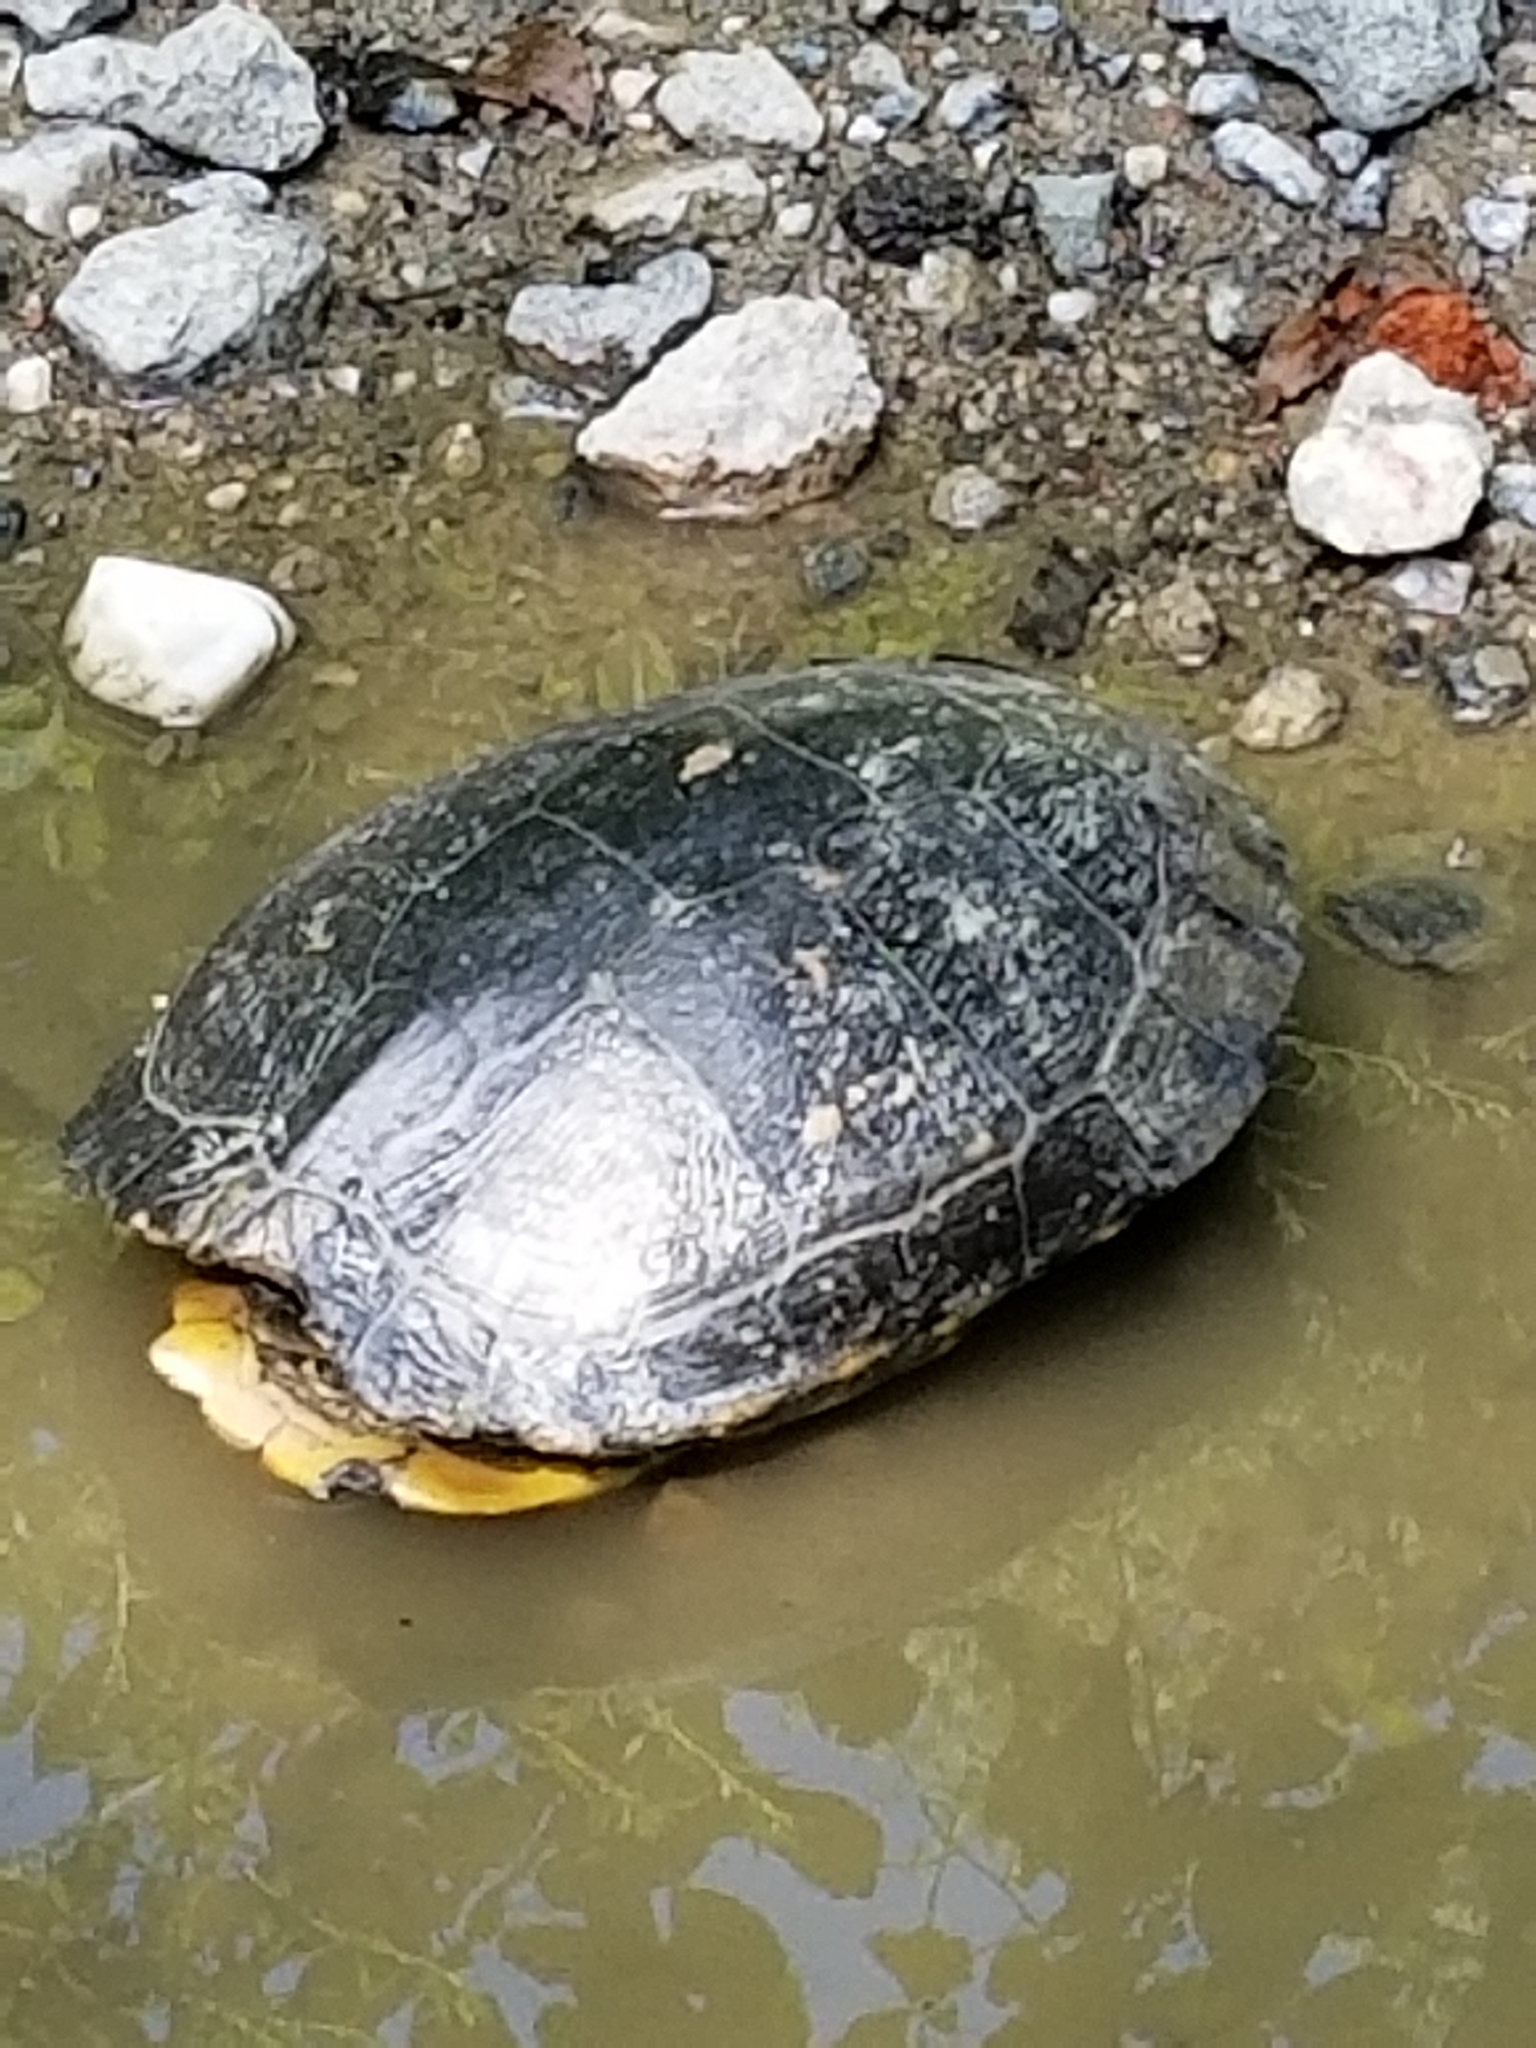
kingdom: Animalia
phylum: Chordata
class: Testudines
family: Emydidae
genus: Trachemys
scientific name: Trachemys scripta
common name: Slider
